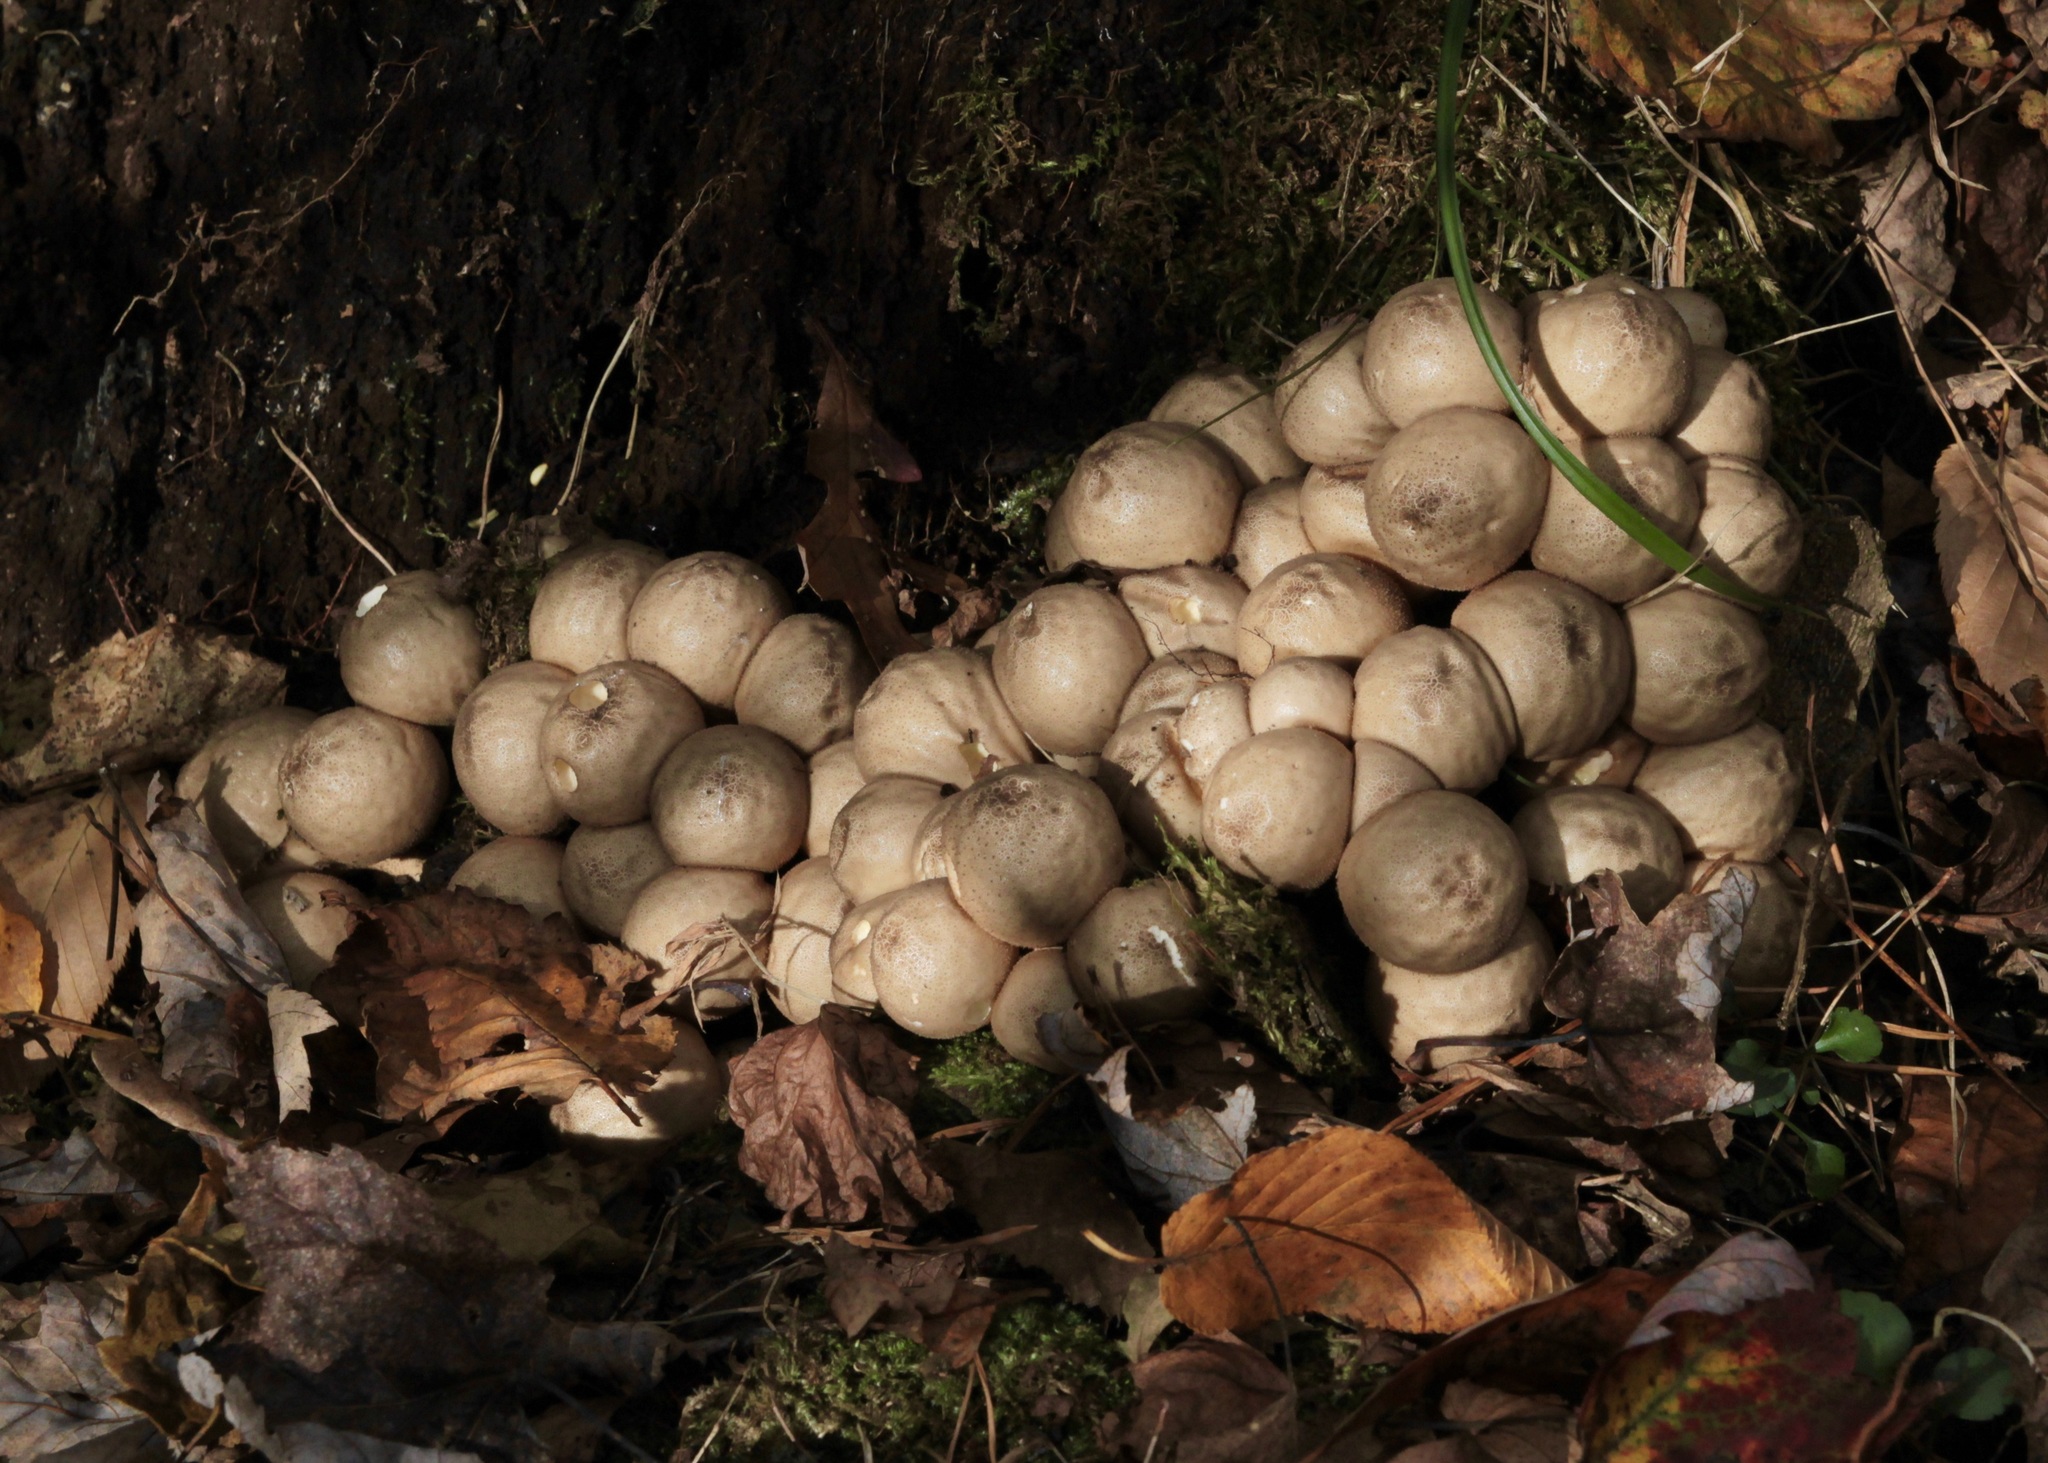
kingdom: Fungi
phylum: Basidiomycota
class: Agaricomycetes
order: Agaricales
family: Lycoperdaceae
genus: Apioperdon
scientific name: Apioperdon pyriforme
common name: Pear-shaped puffball
